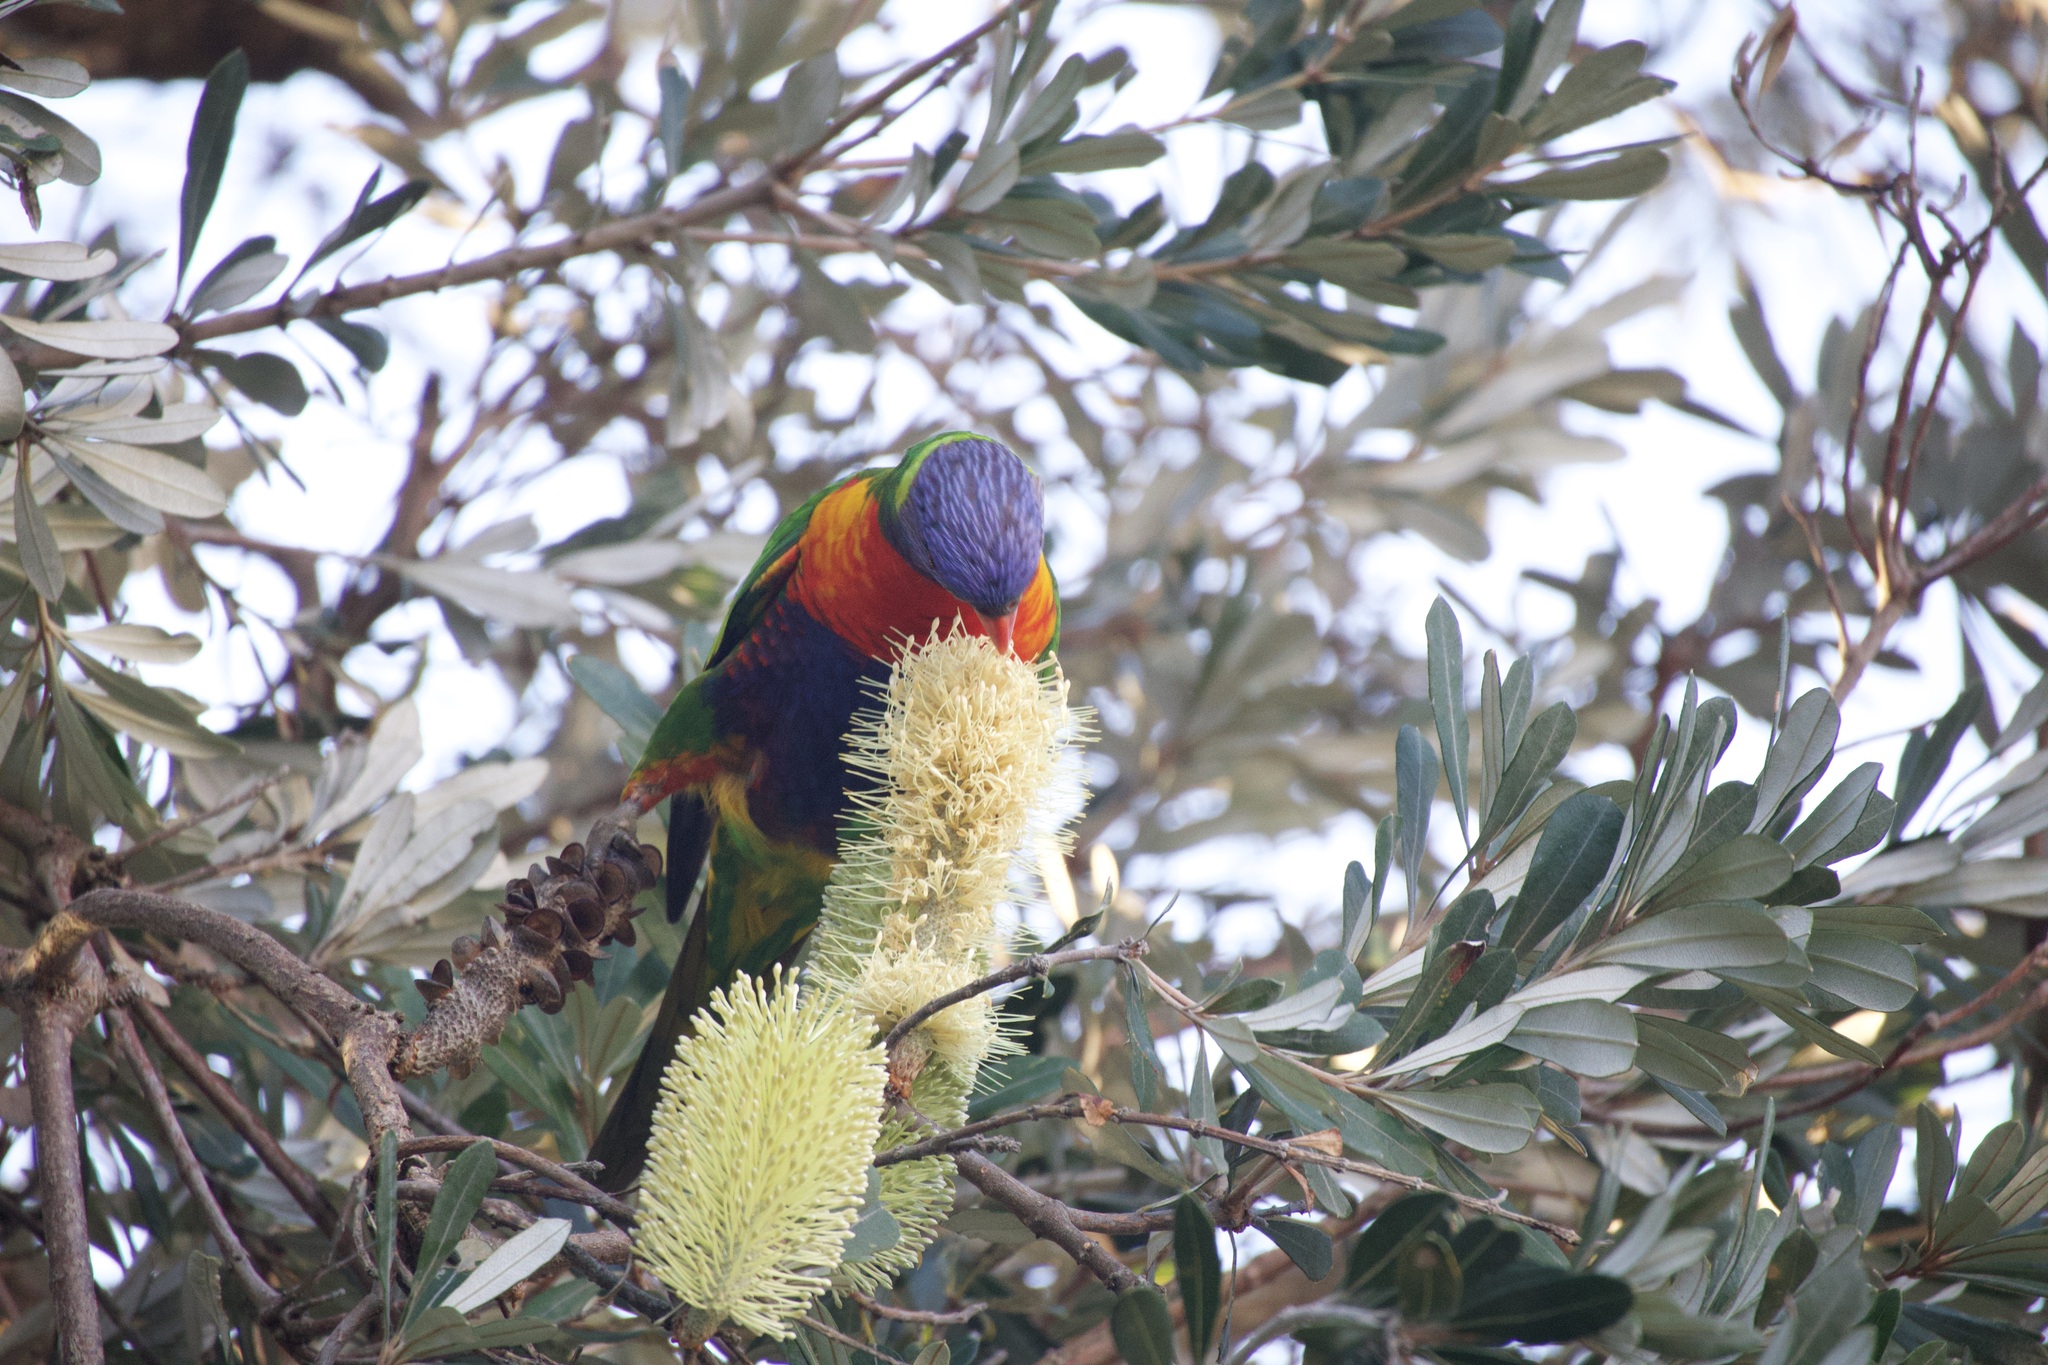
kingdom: Animalia
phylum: Chordata
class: Aves
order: Psittaciformes
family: Psittacidae
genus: Trichoglossus
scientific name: Trichoglossus haematodus
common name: Coconut lorikeet
